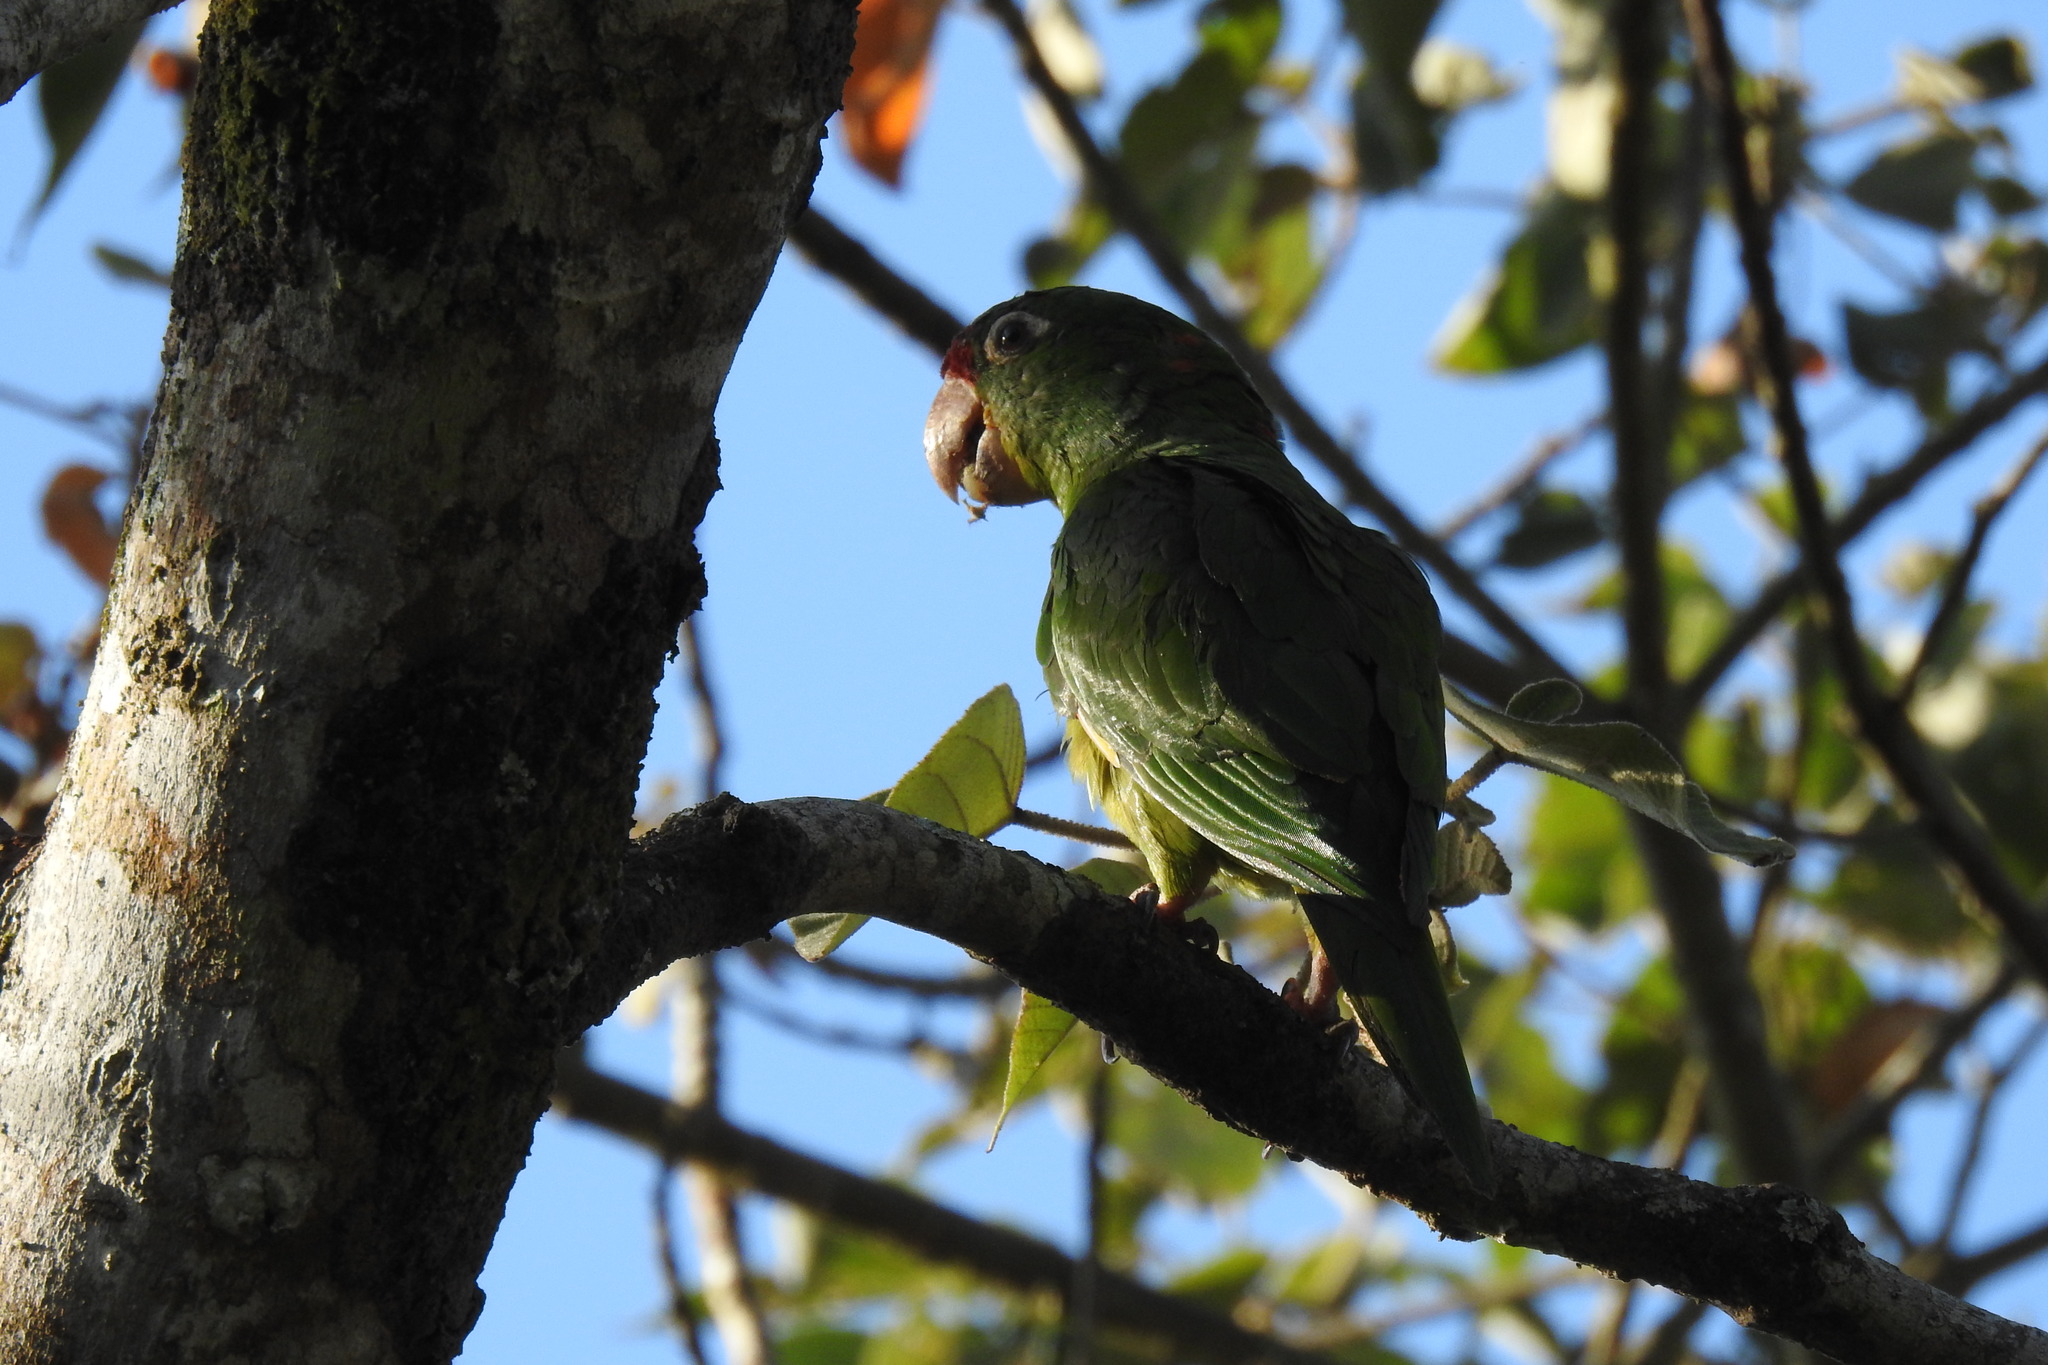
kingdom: Animalia
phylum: Chordata
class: Aves
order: Psittaciformes
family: Psittacidae
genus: Aratinga
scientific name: Aratinga finschi
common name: Crimson-fronted parakeet
